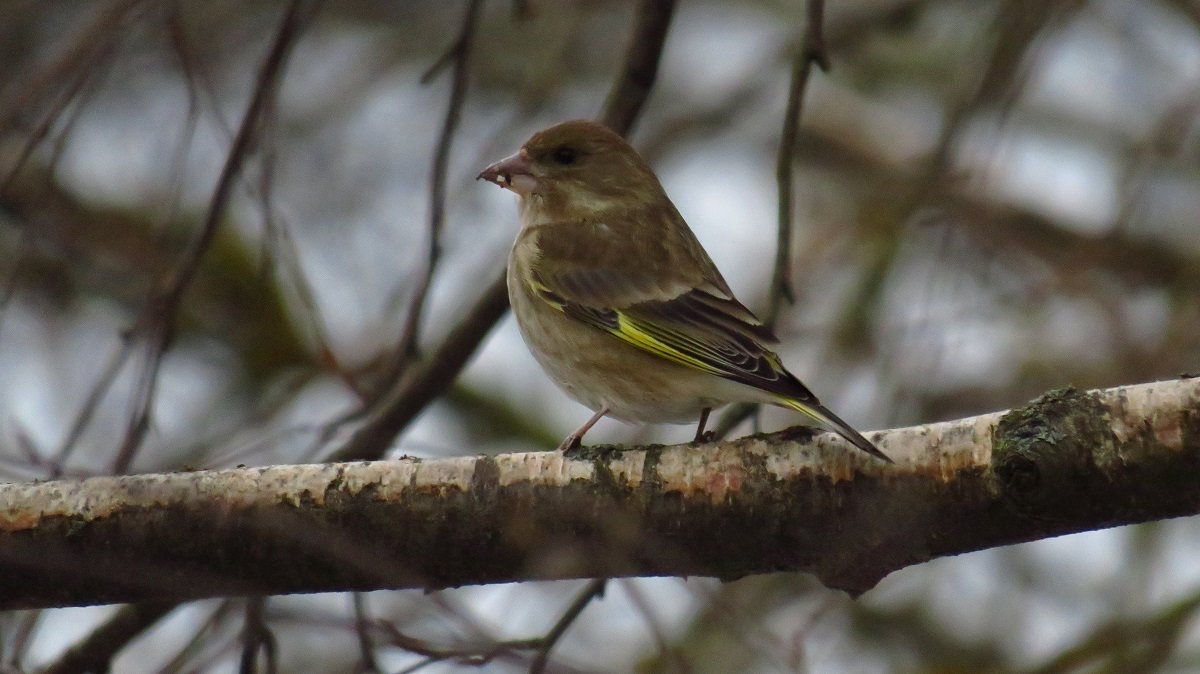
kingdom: Plantae
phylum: Tracheophyta
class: Liliopsida
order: Poales
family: Poaceae
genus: Chloris
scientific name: Chloris chloris
